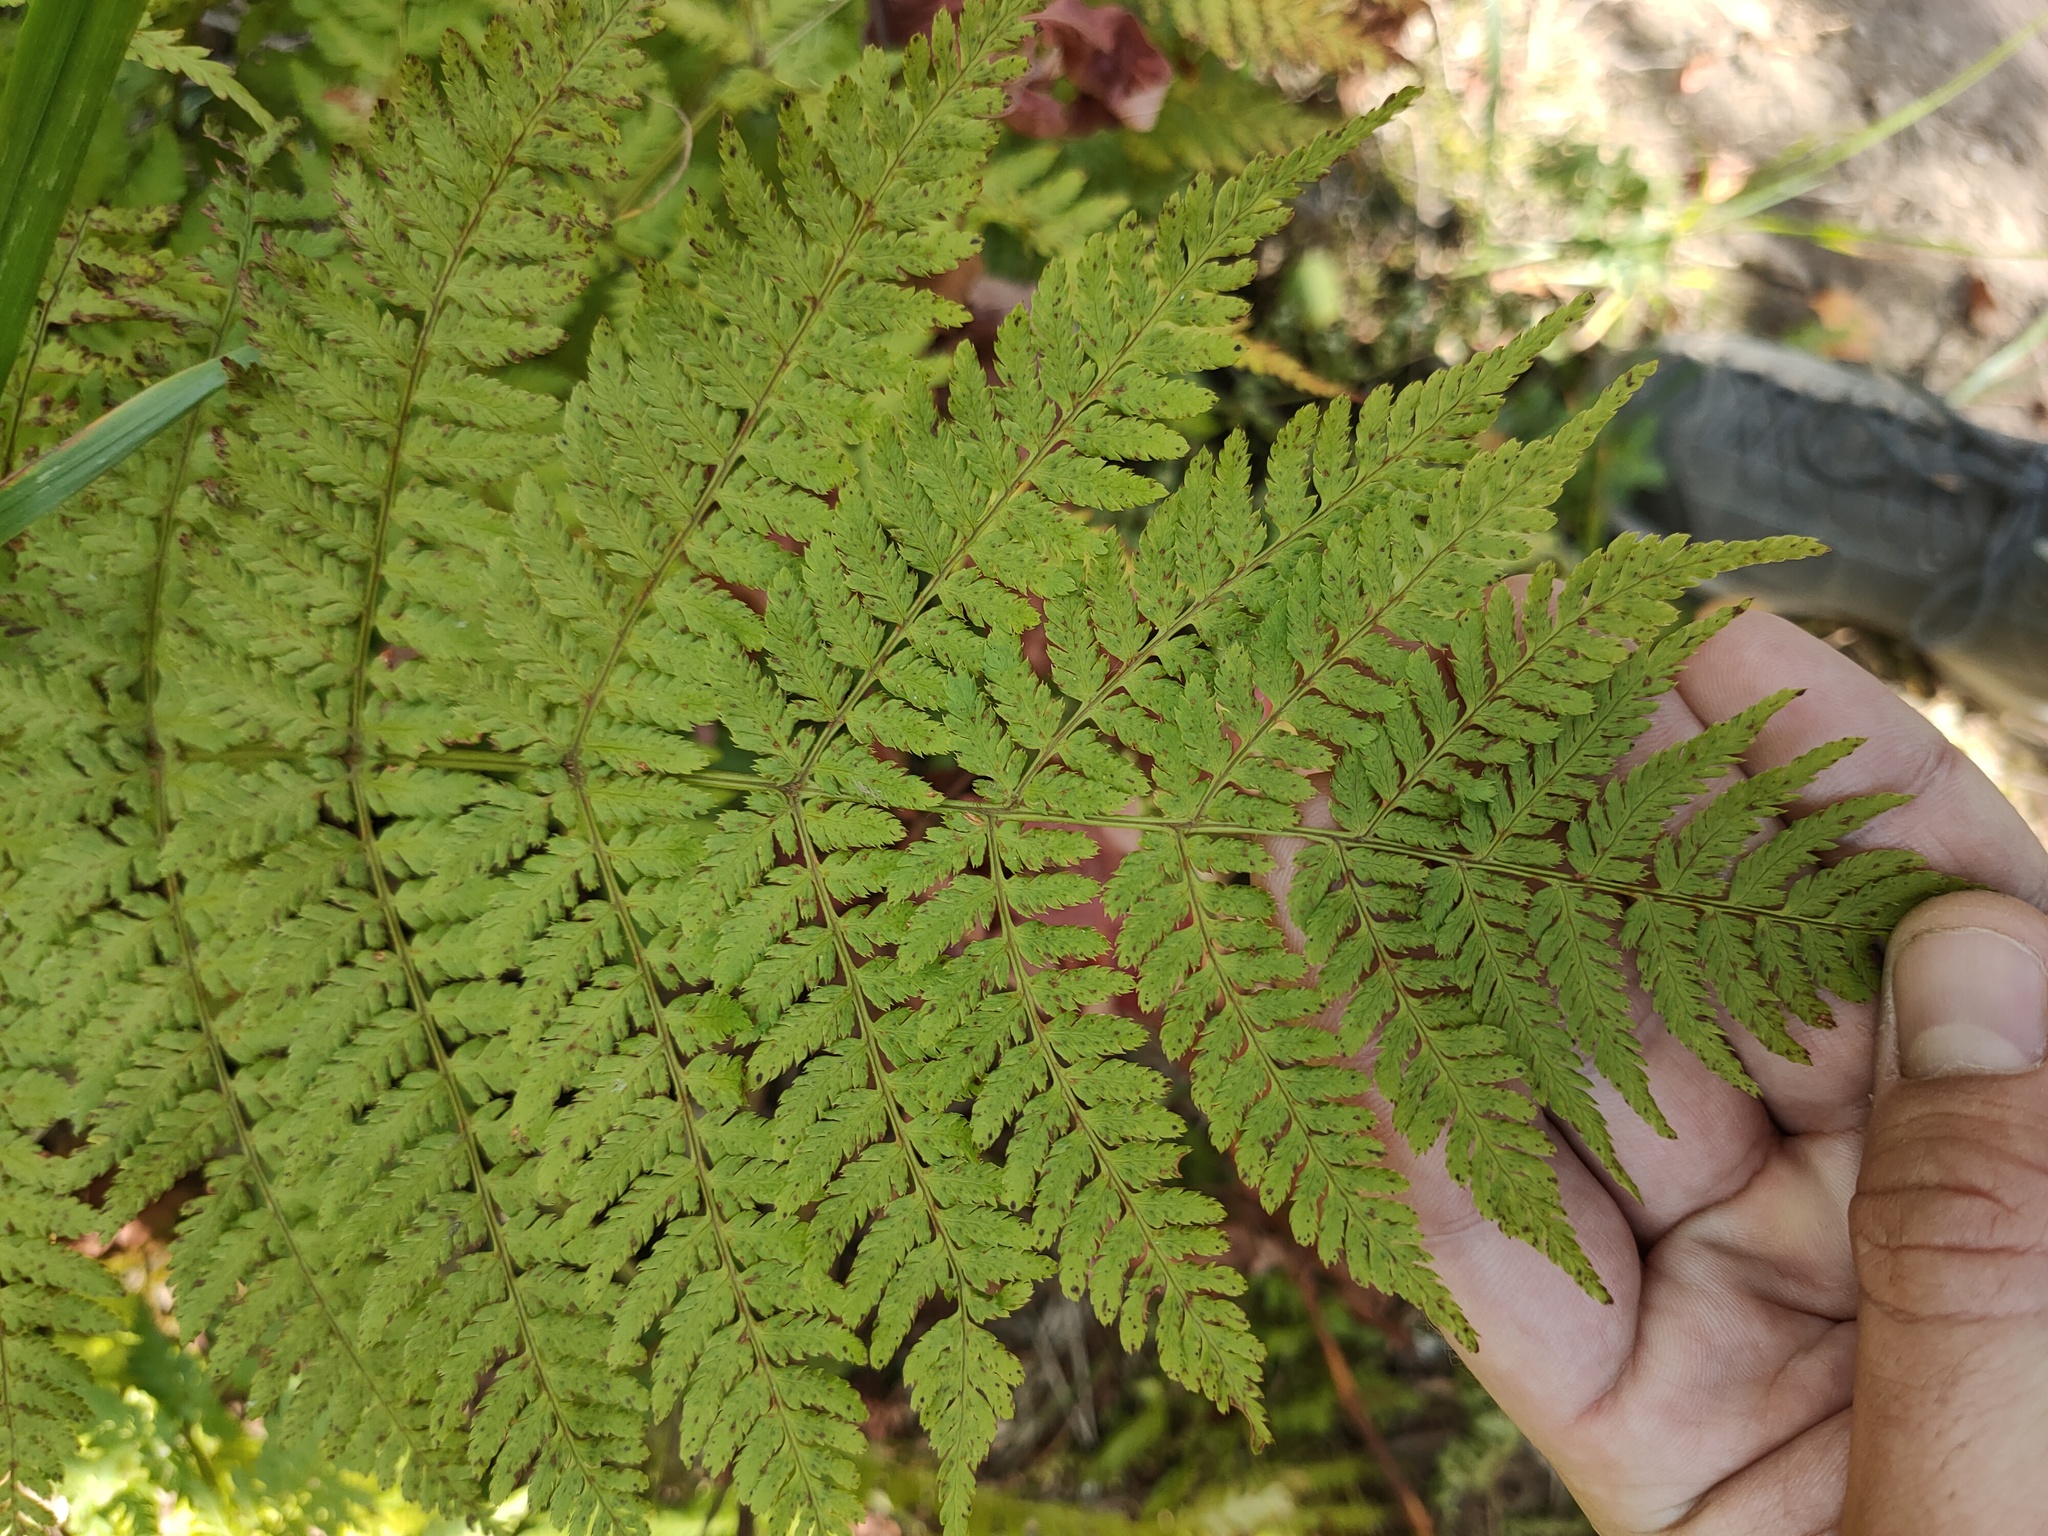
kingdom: Plantae
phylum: Tracheophyta
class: Polypodiopsida
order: Polypodiales
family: Dryopteridaceae
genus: Dryopteris
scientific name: Dryopteris expansa
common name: Northern buckler fern
